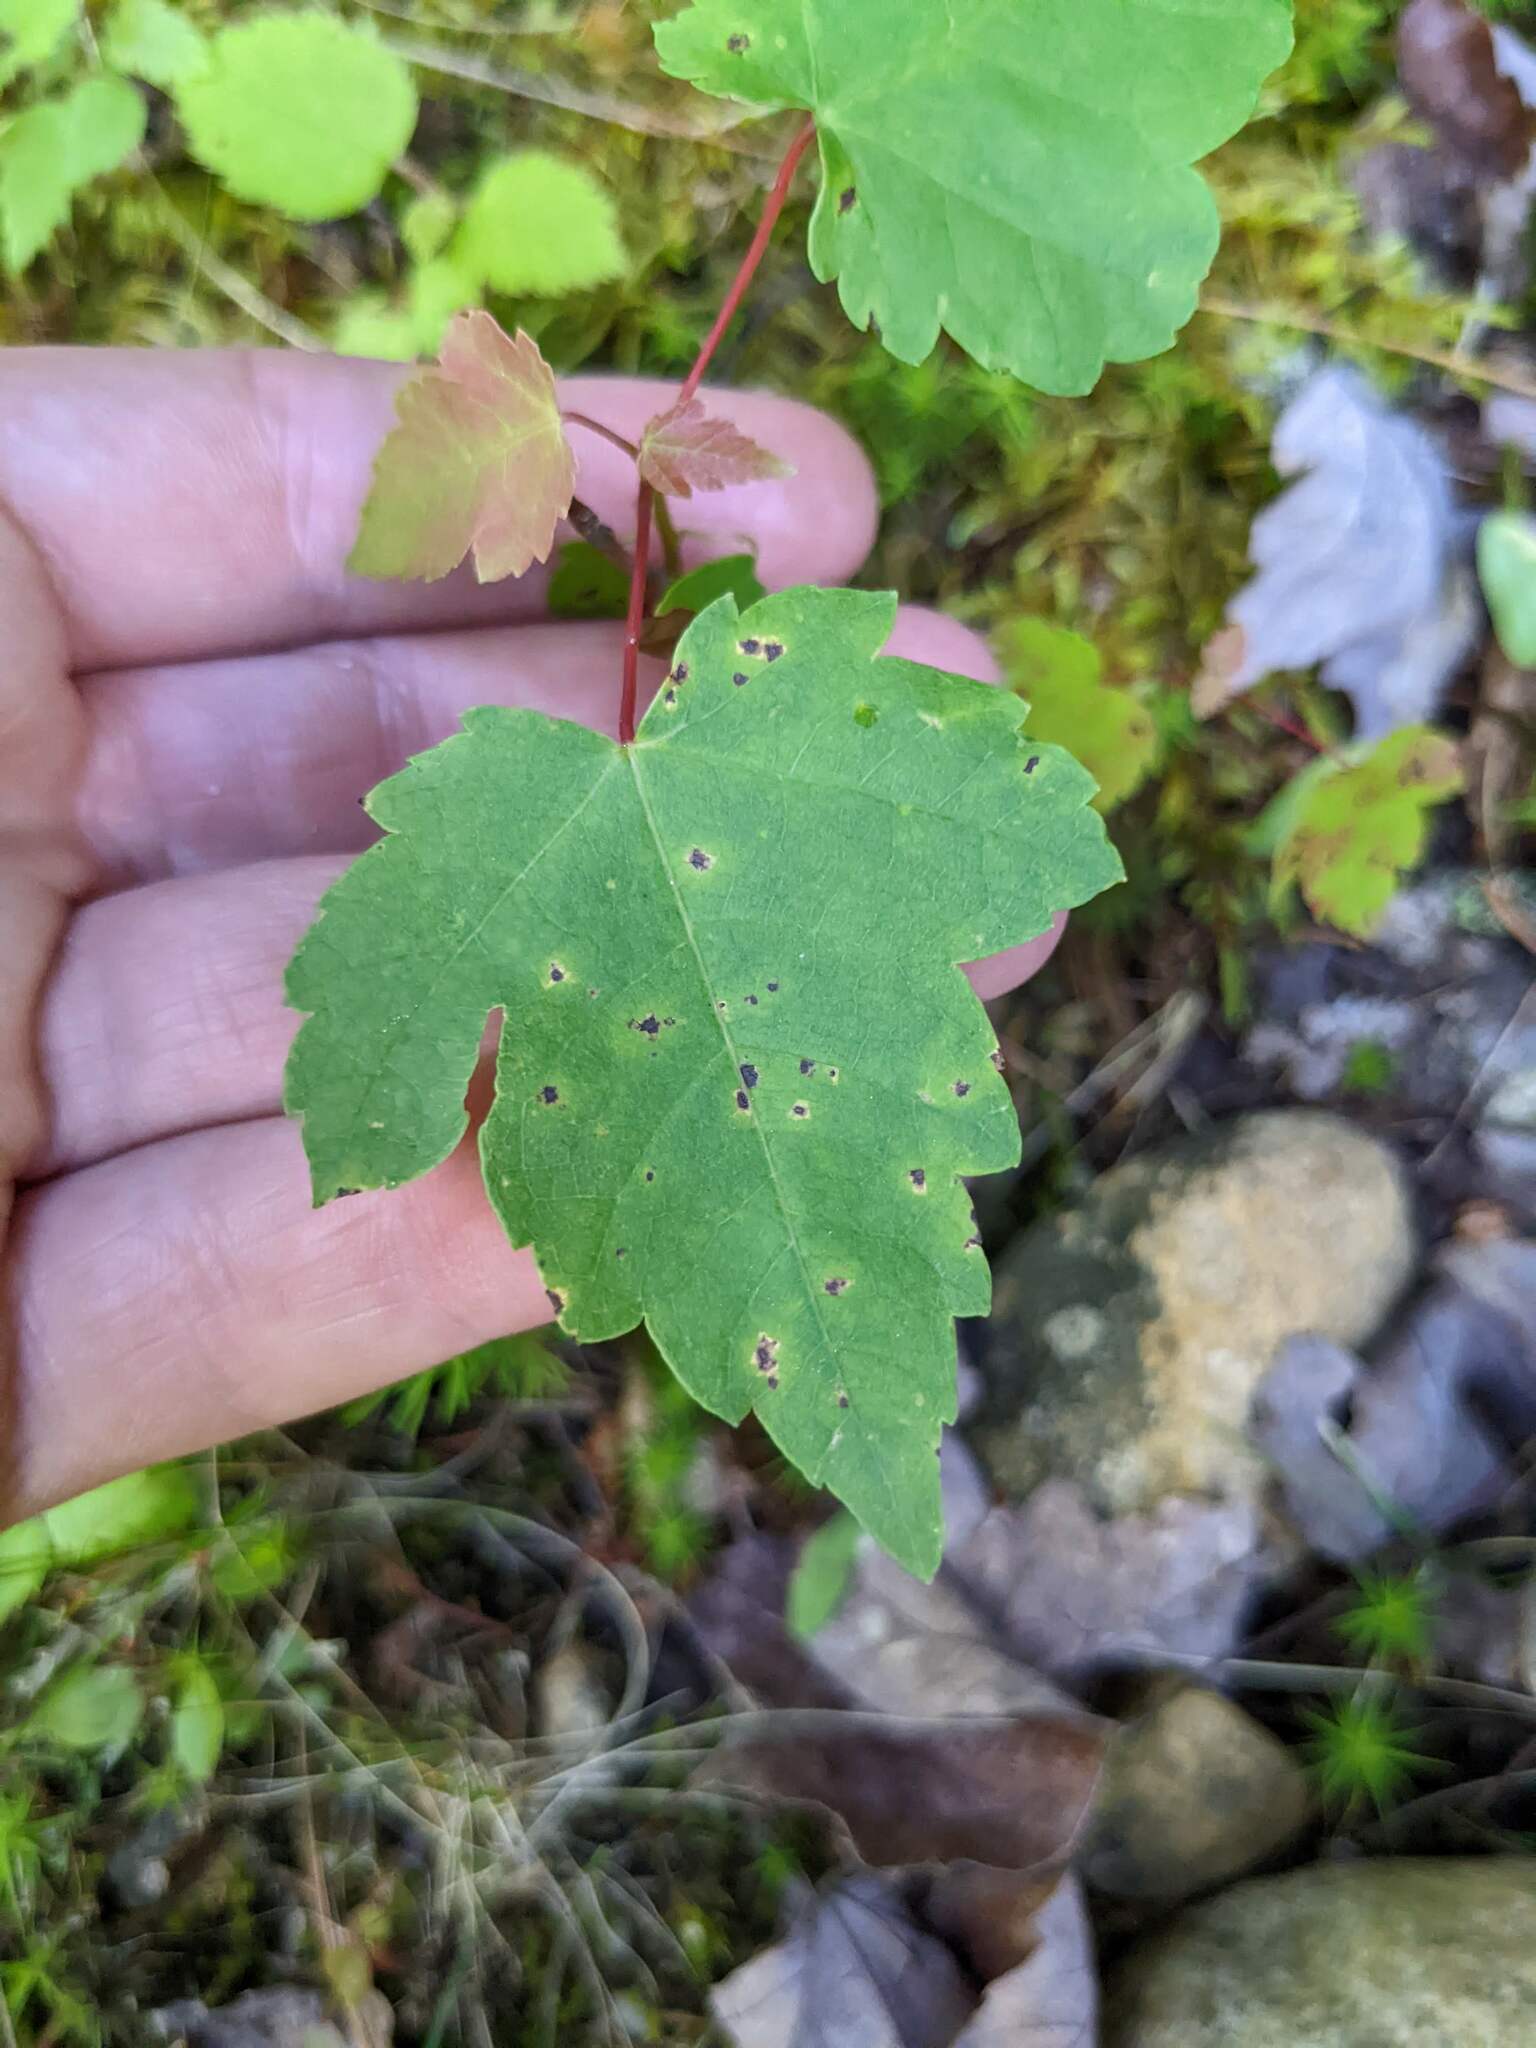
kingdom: Plantae
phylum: Tracheophyta
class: Magnoliopsida
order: Sapindales
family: Sapindaceae
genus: Acer
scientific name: Acer rubrum
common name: Red maple
